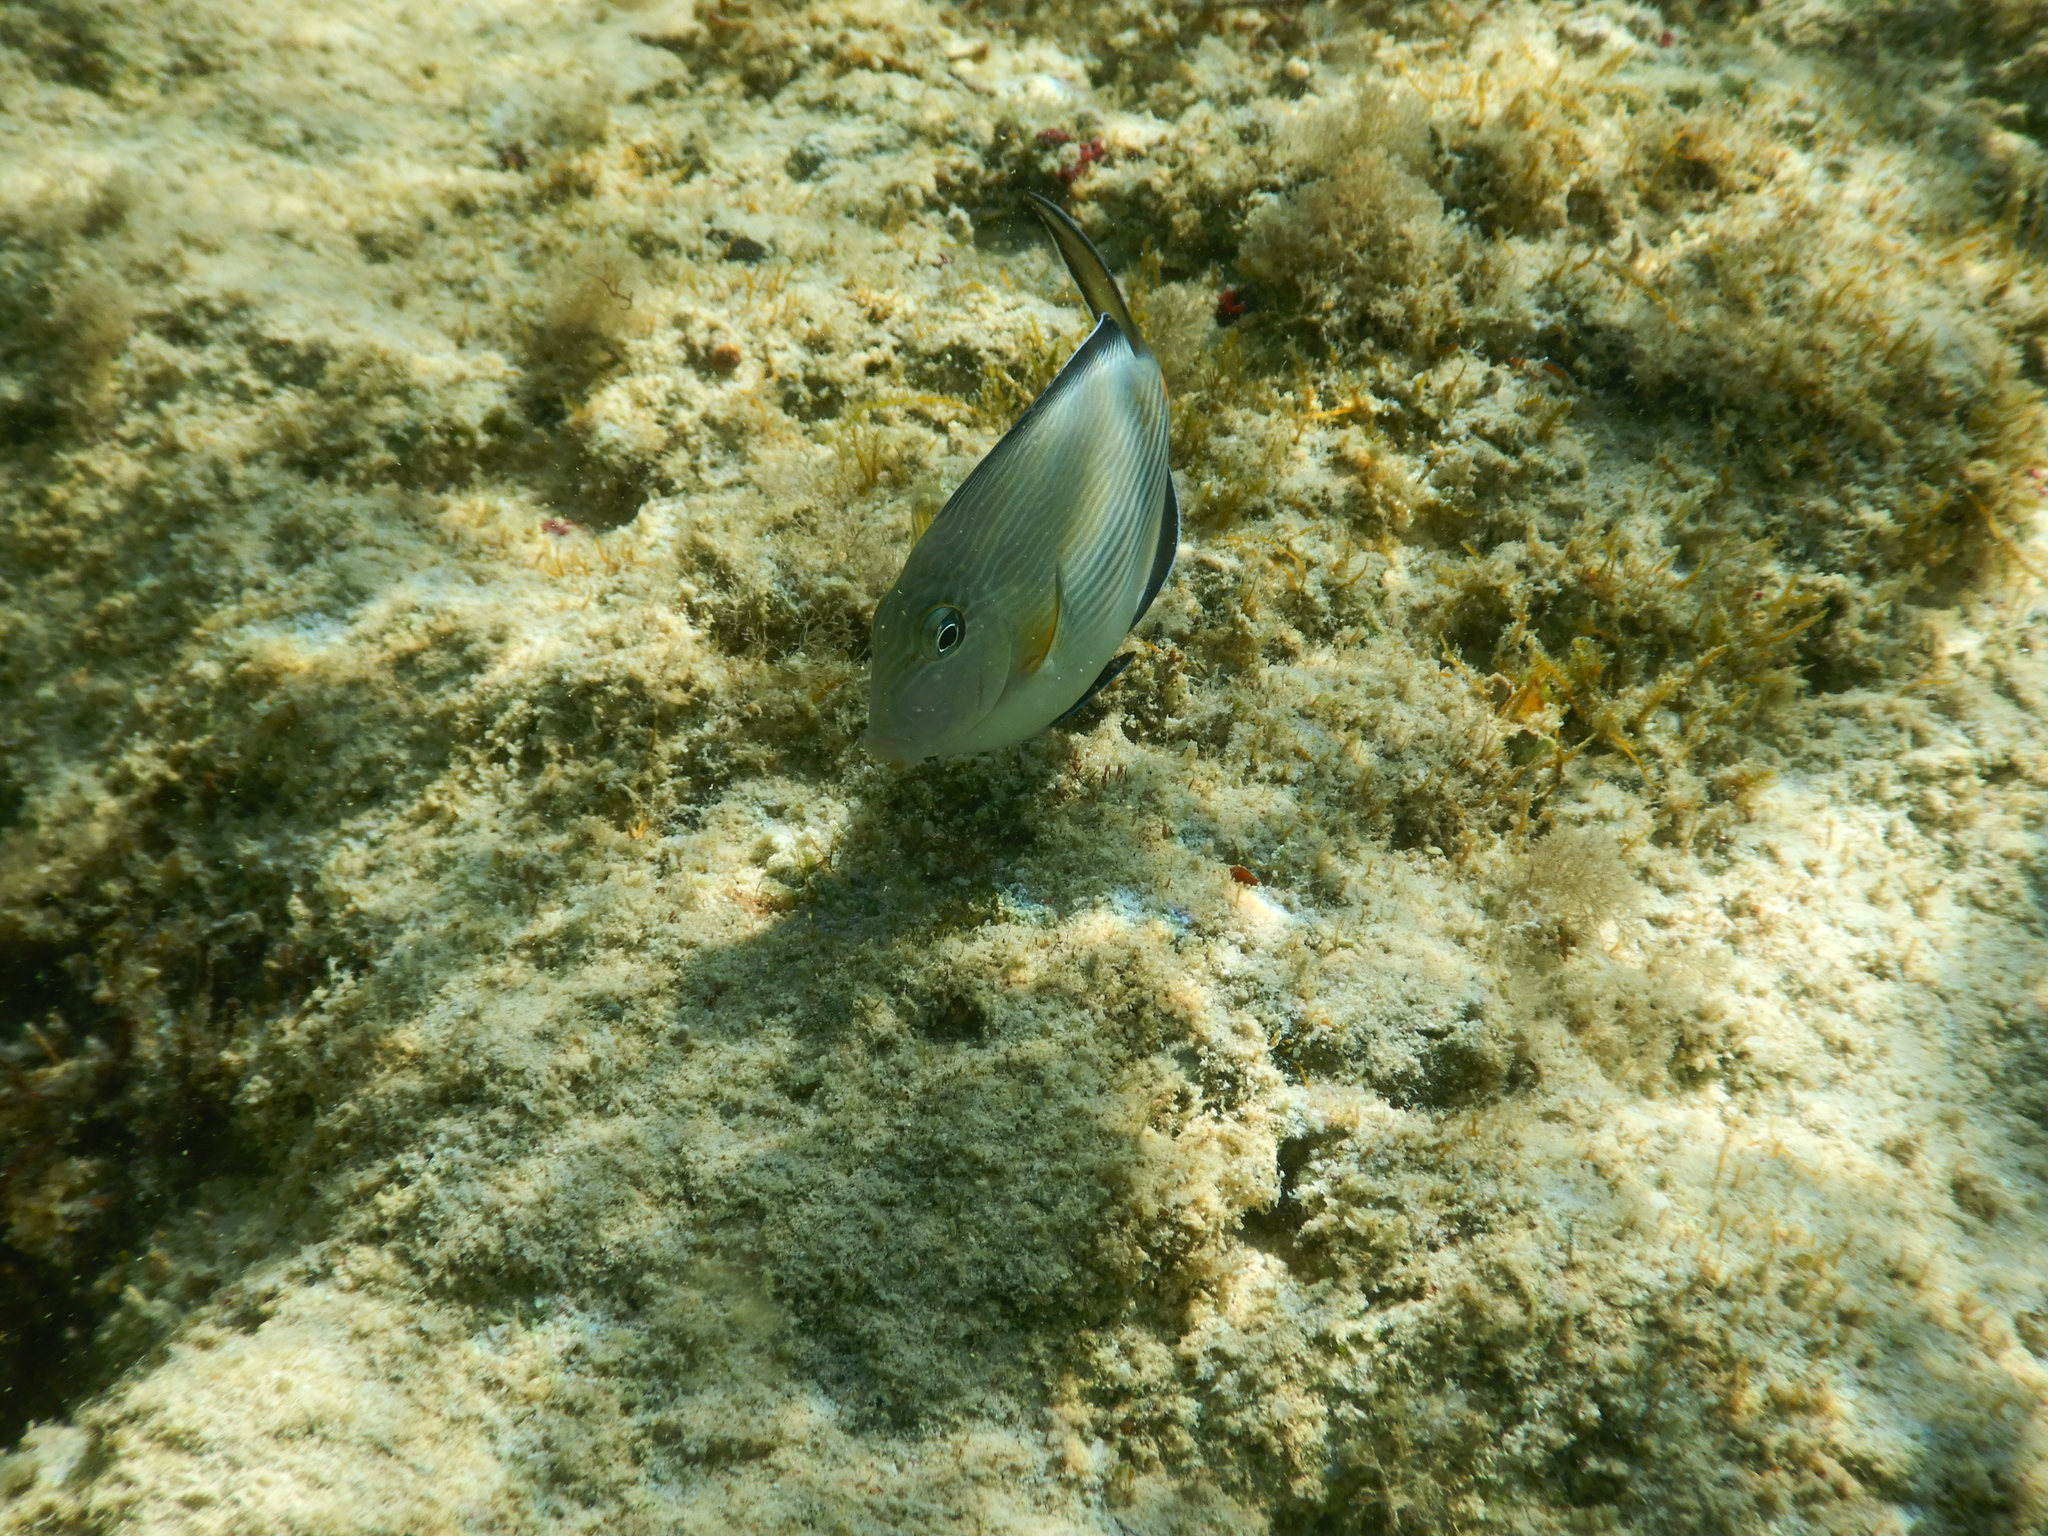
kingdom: Animalia
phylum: Chordata
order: Perciformes
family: Acanthuridae
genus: Acanthurus
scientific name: Acanthurus sohal
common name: Red sea surgeonfish
